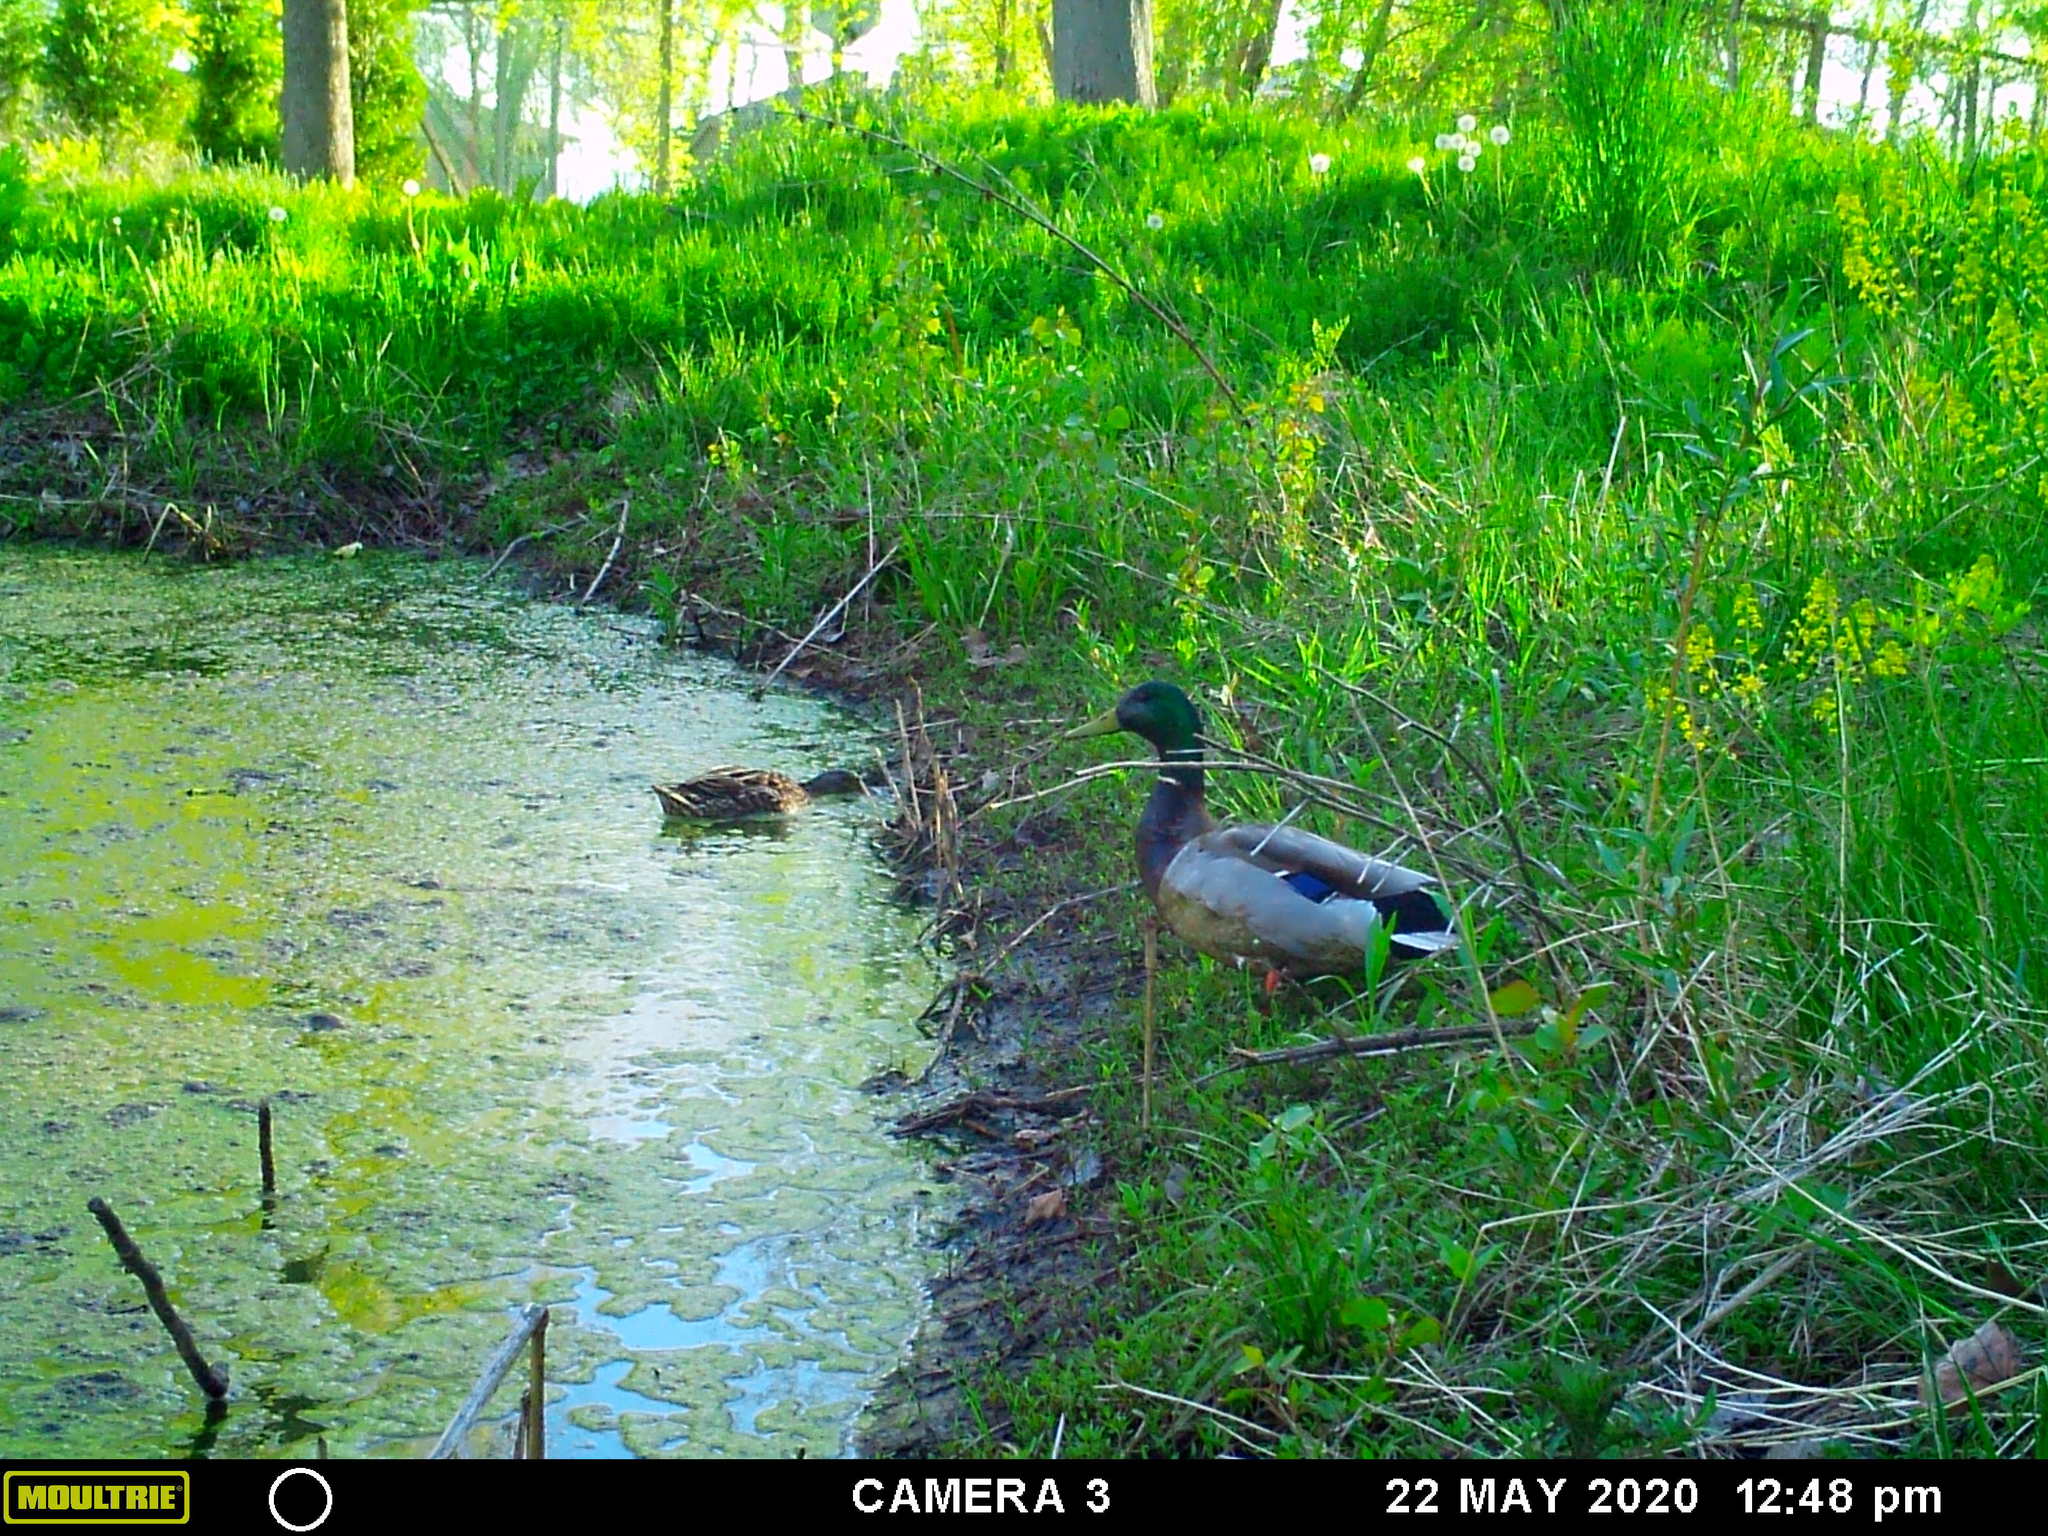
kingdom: Animalia
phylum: Chordata
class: Aves
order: Anseriformes
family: Anatidae
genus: Anas
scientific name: Anas platyrhynchos
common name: Mallard
